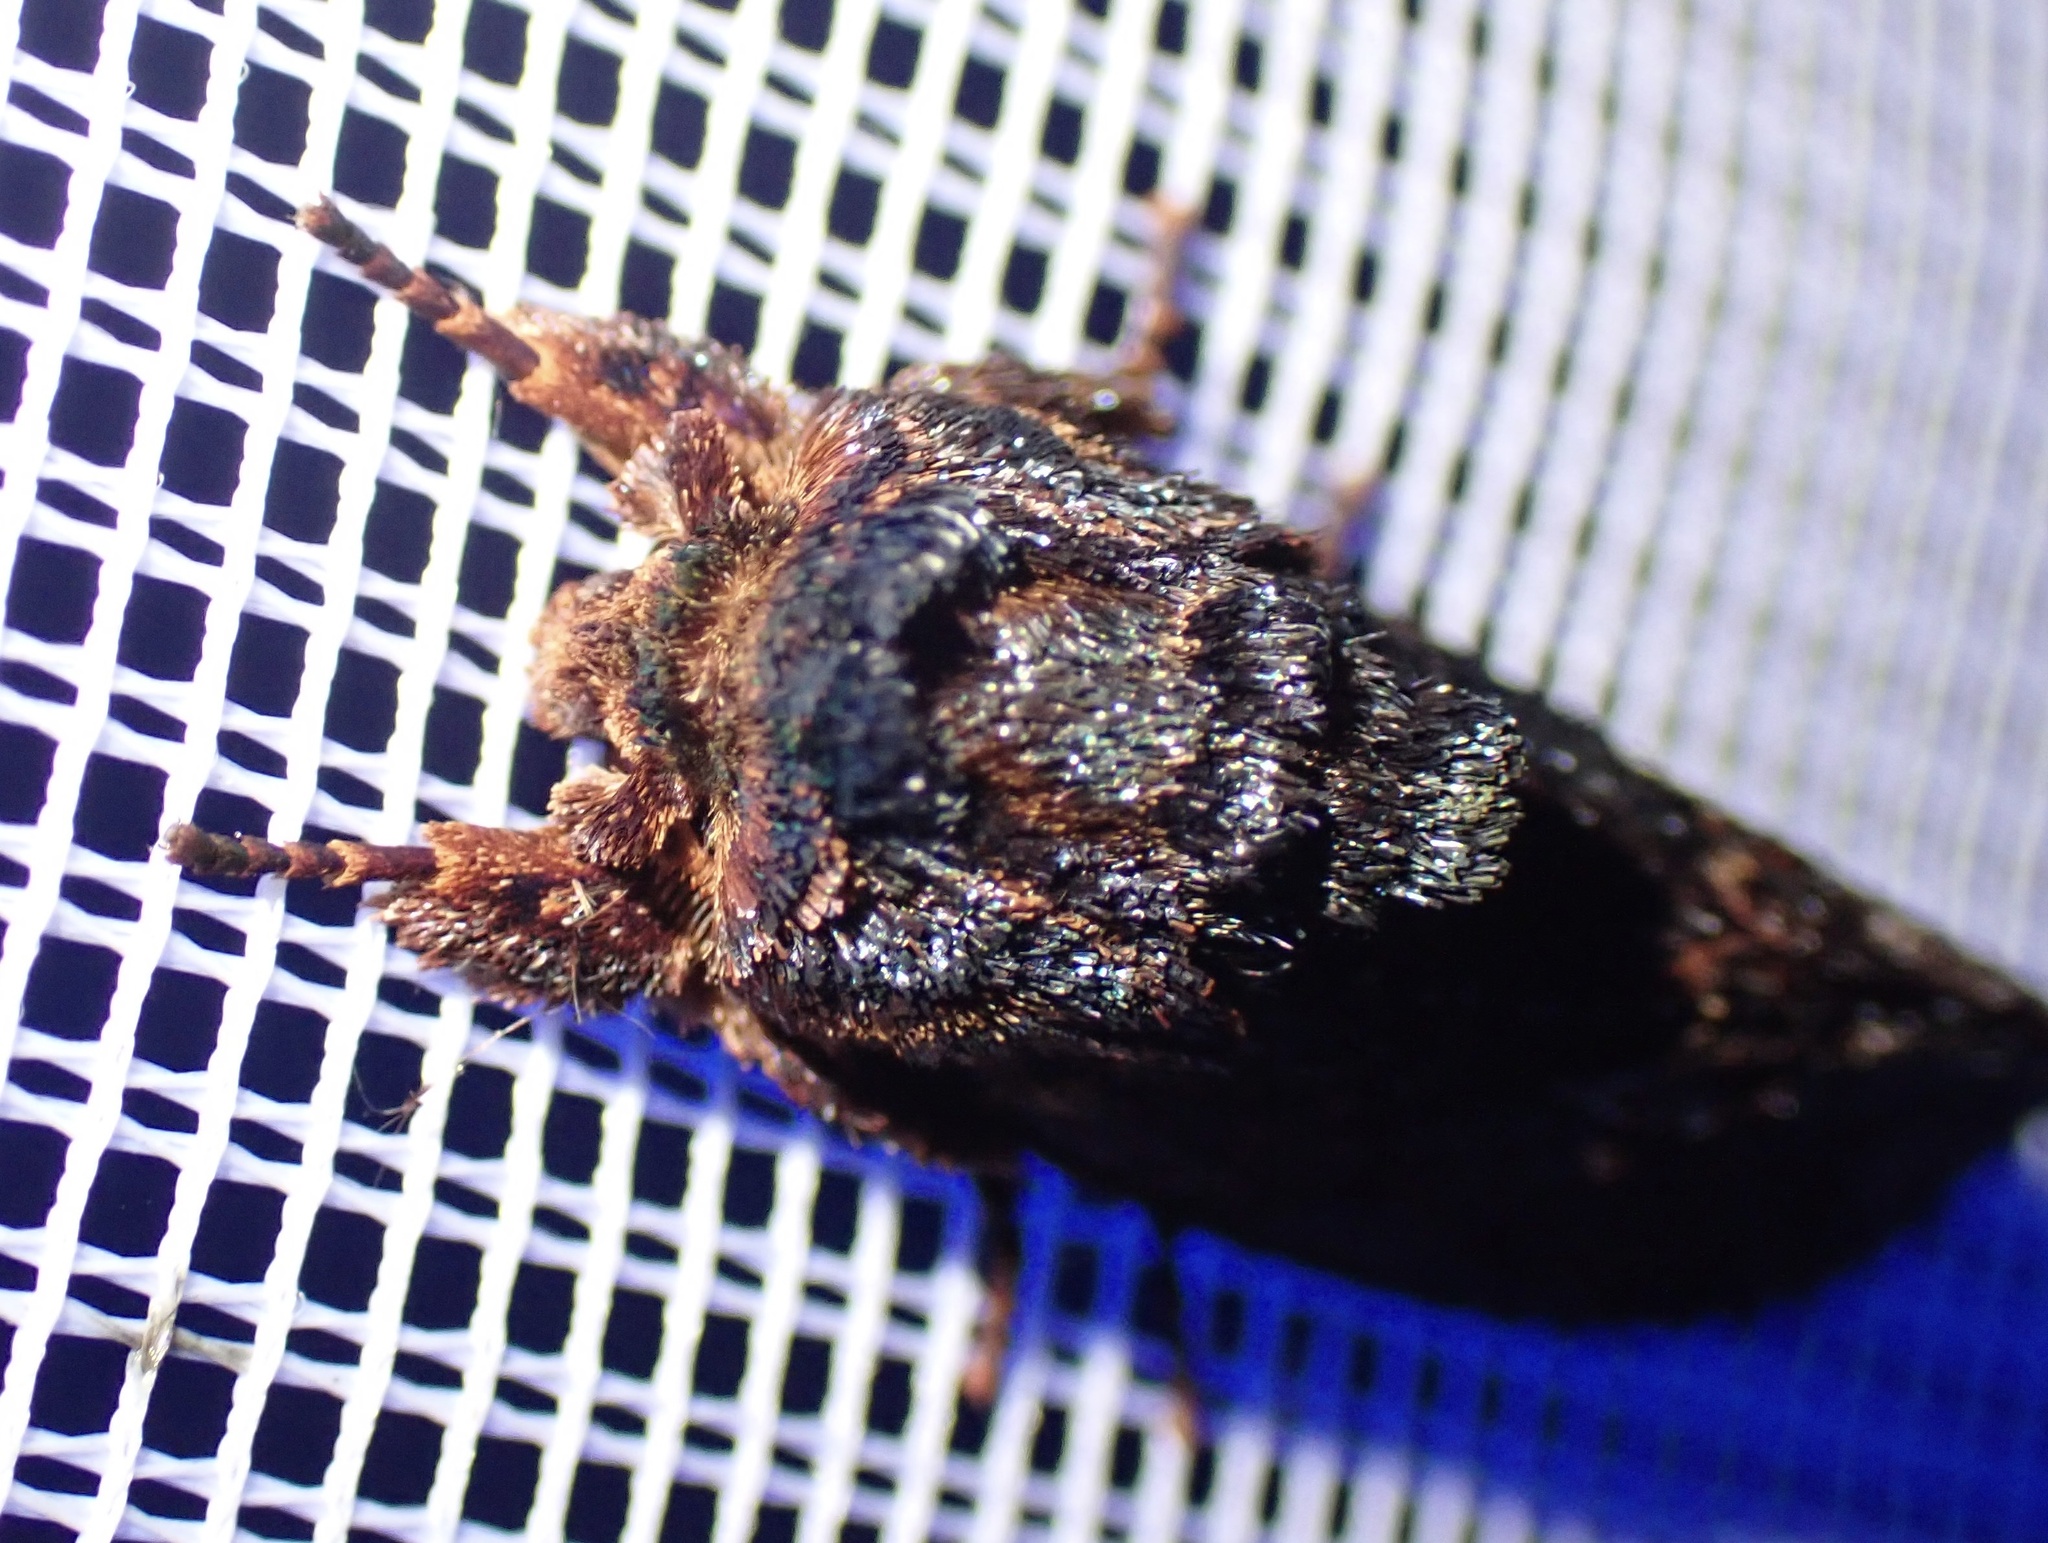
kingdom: Animalia
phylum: Arthropoda
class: Insecta
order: Lepidoptera
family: Notodontidae
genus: Sorama
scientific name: Sorama bicolor
